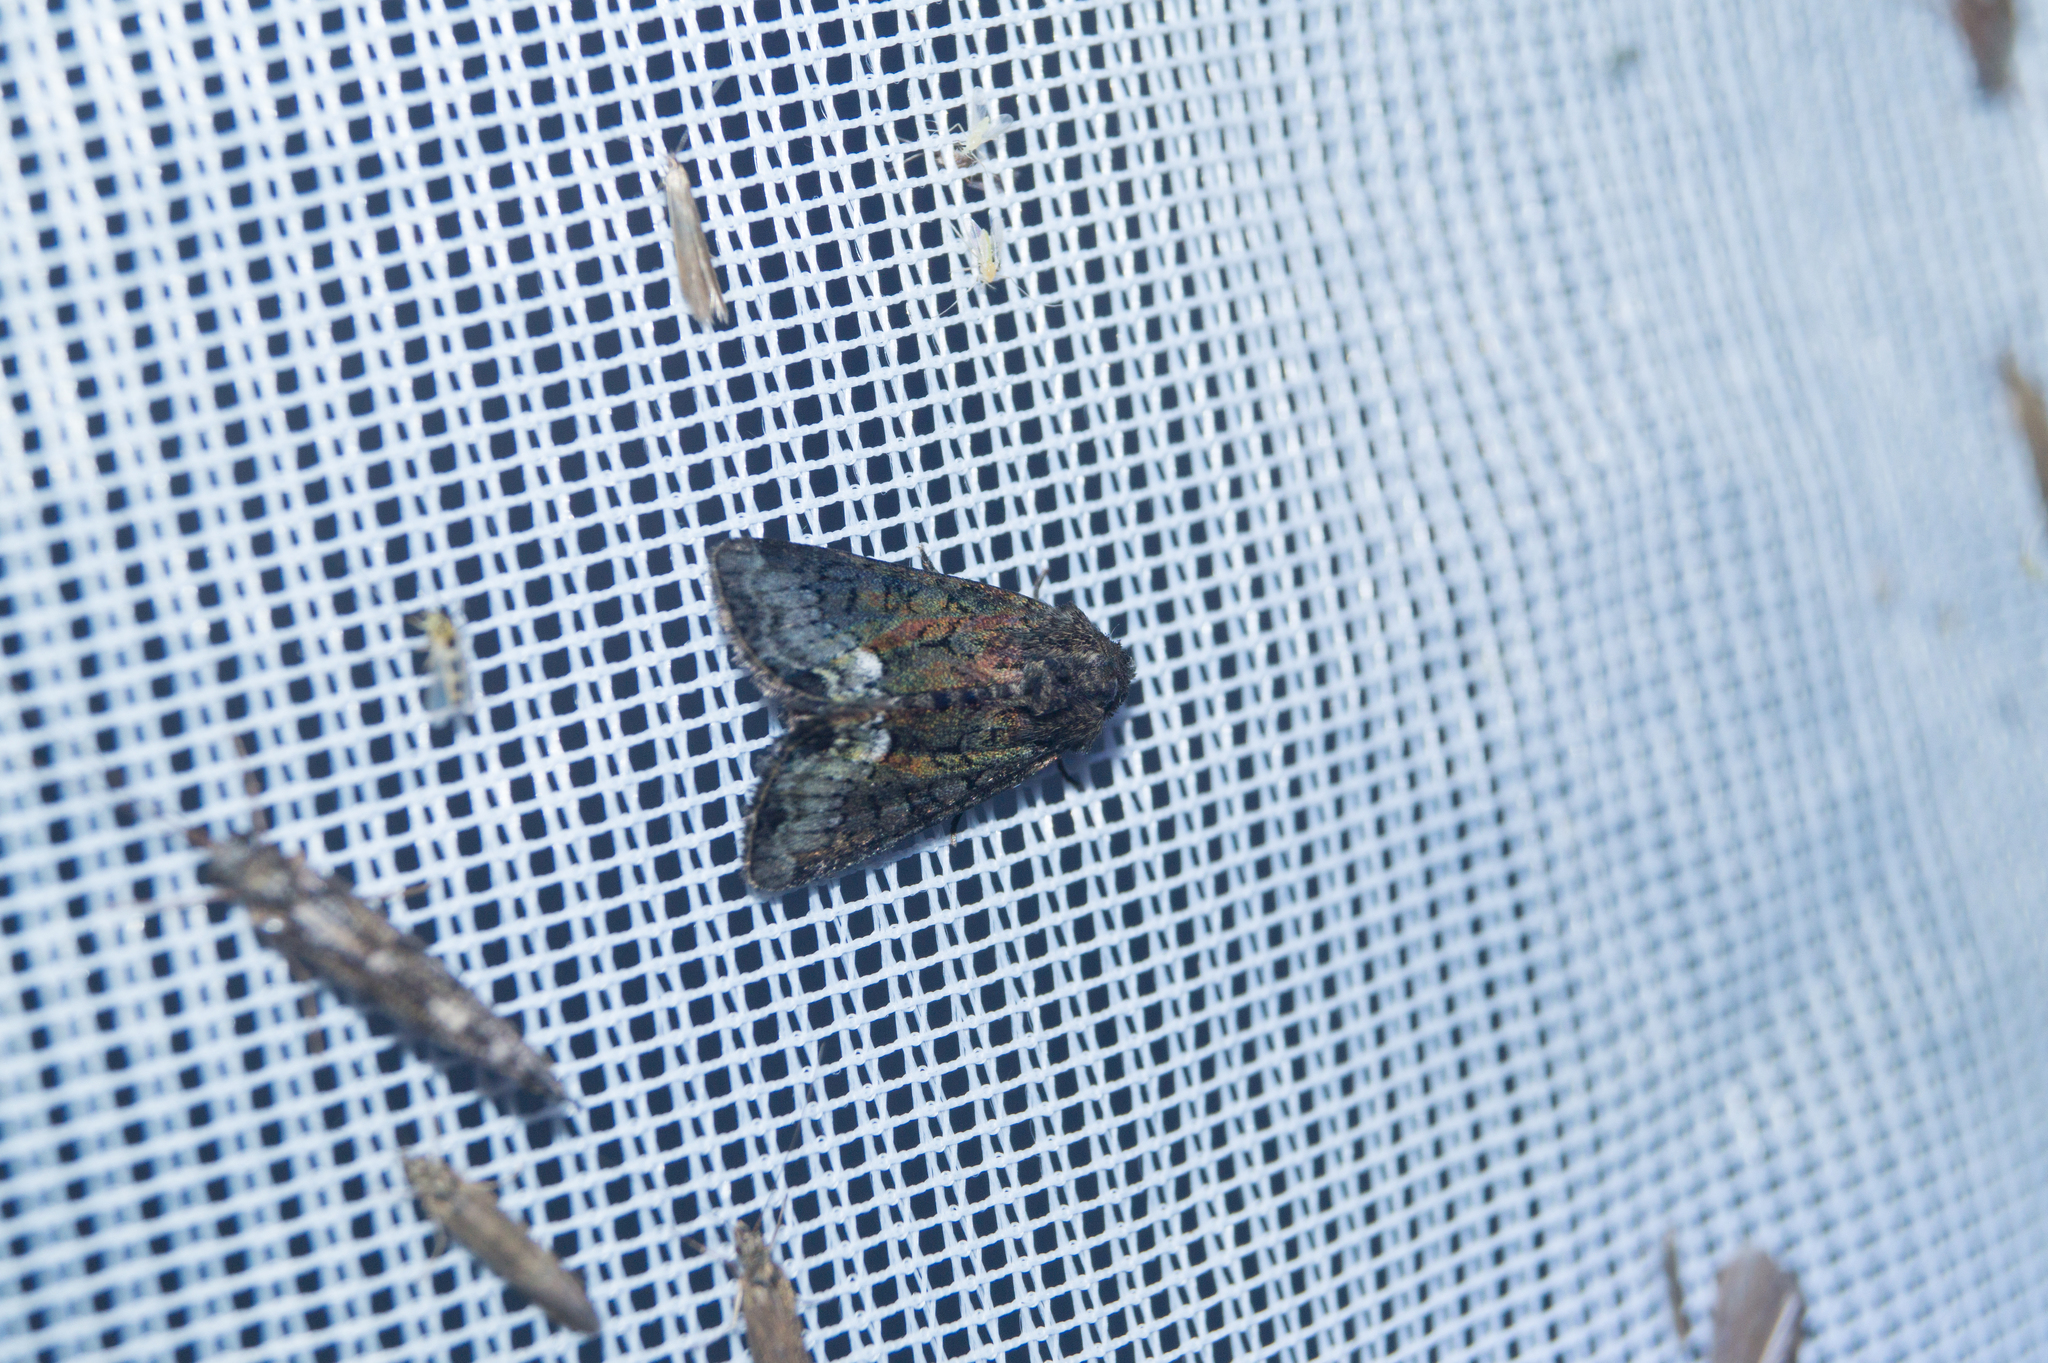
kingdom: Animalia
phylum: Arthropoda
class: Insecta
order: Lepidoptera
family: Noctuidae
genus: Oligia
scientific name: Oligia strigilis
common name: Marbled minor
